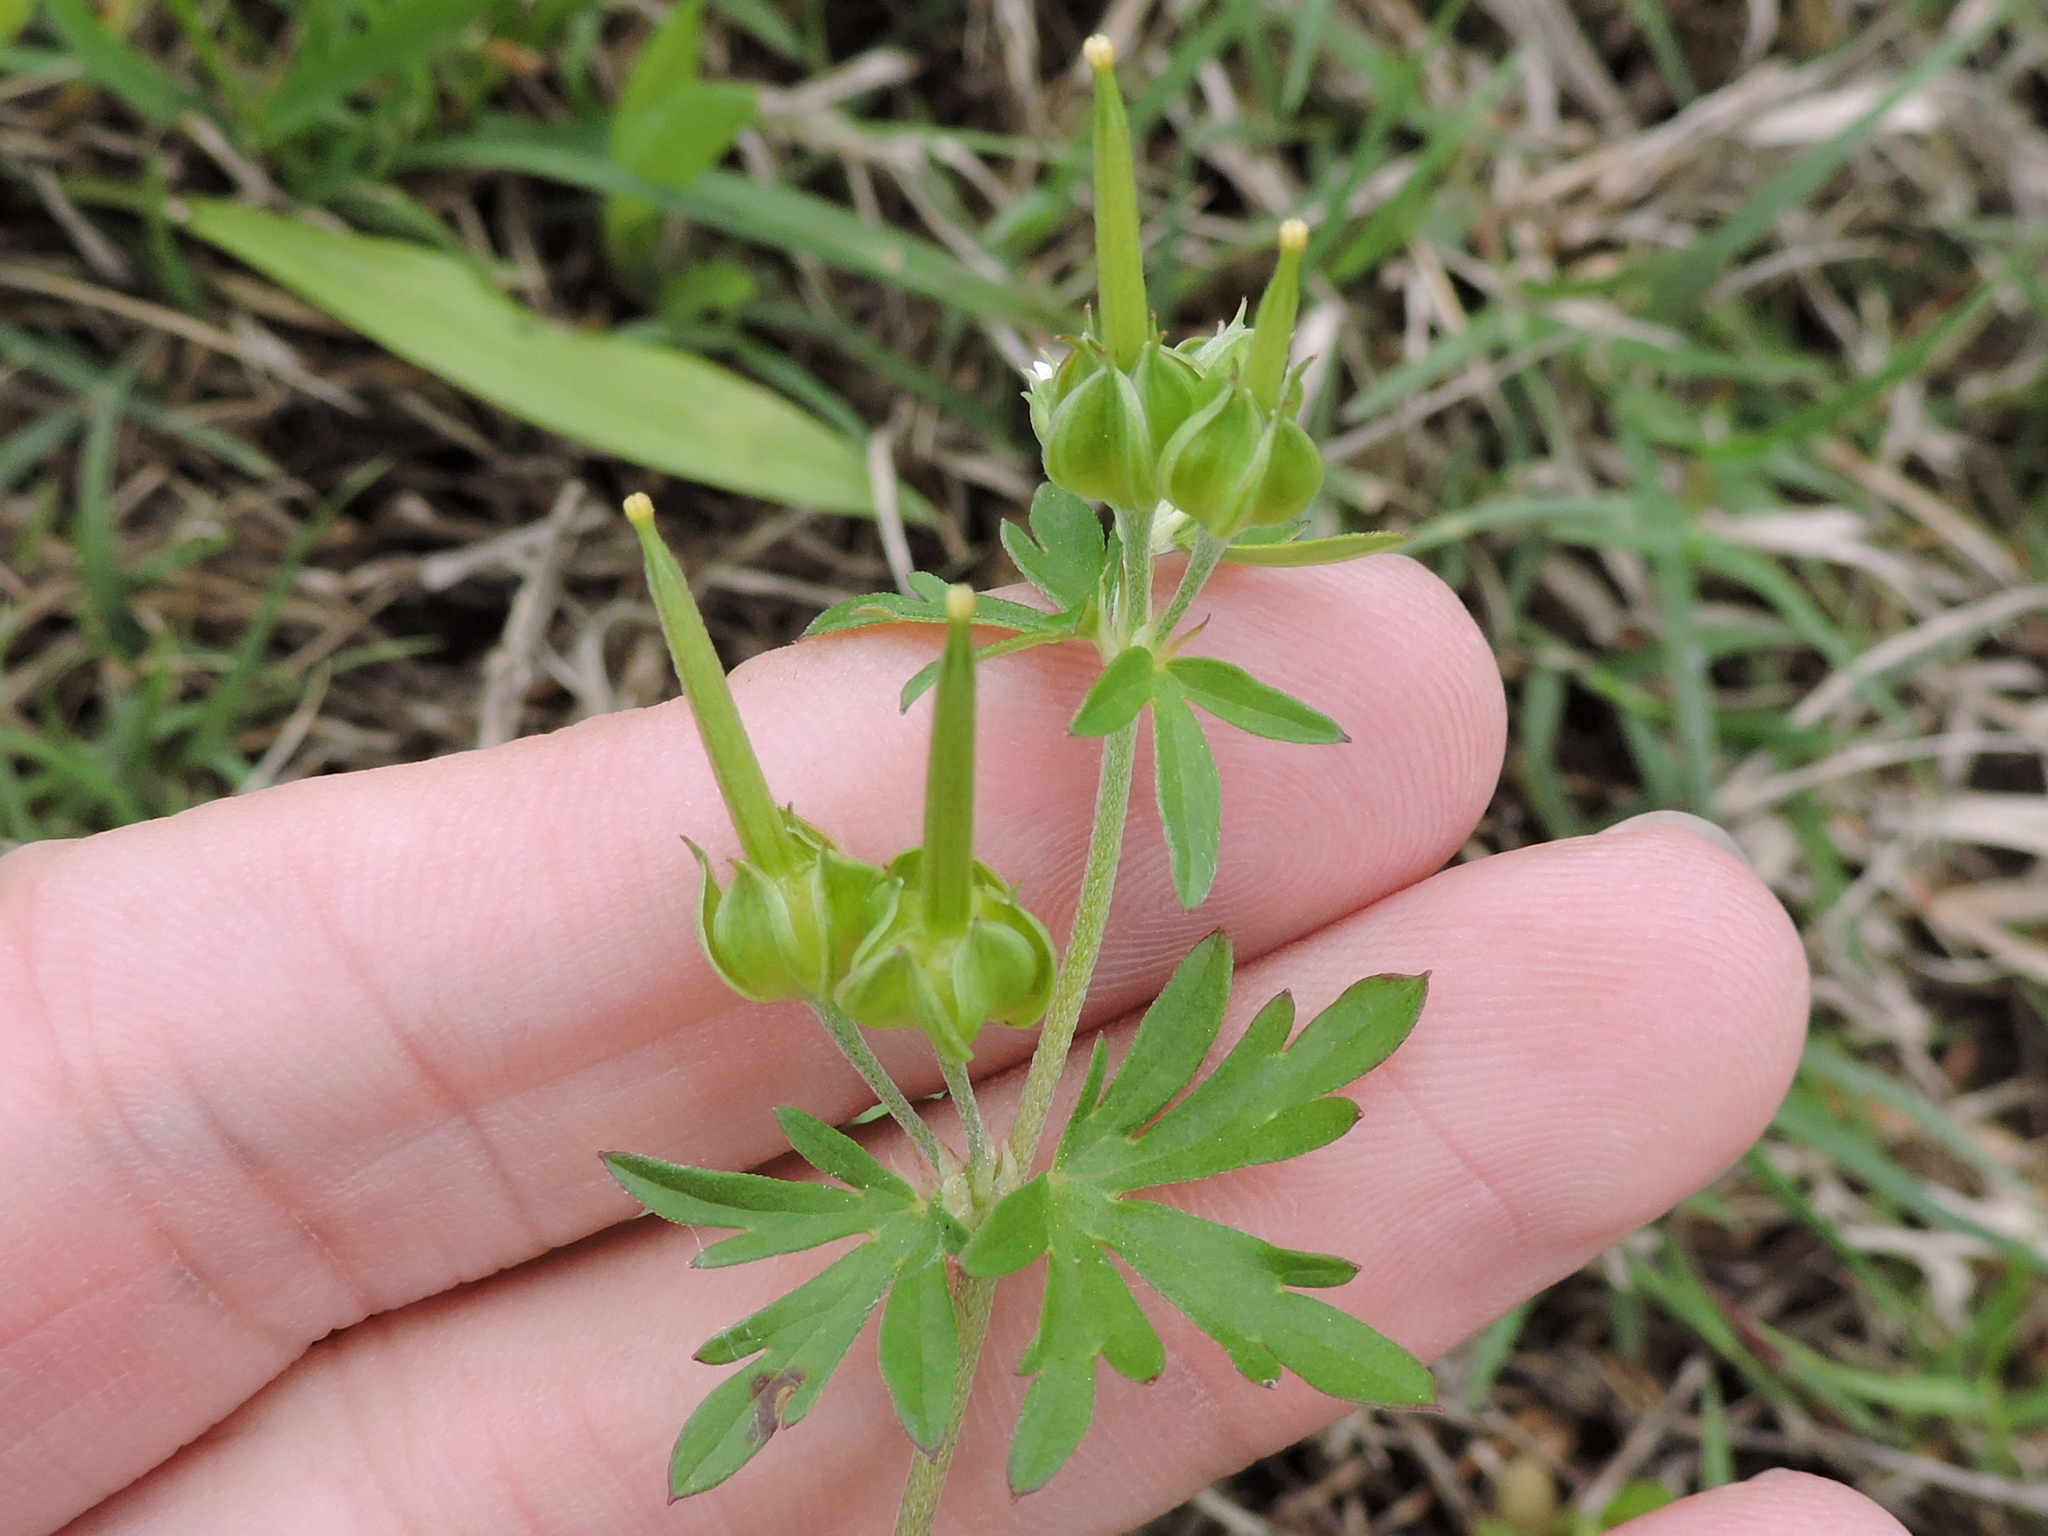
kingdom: Plantae
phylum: Tracheophyta
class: Magnoliopsida
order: Geraniales
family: Geraniaceae
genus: Geranium
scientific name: Geranium carolinianum
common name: Carolina crane's-bill
